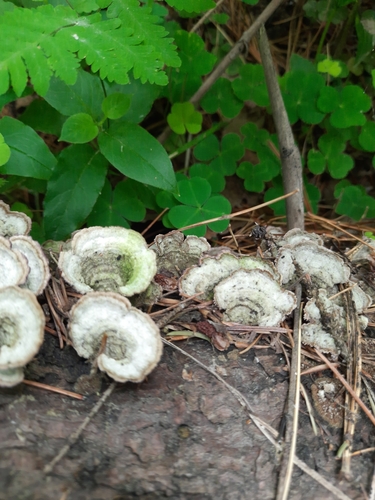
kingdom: Fungi
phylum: Basidiomycota
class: Agaricomycetes
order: Hymenochaetales
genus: Trichaptum
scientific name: Trichaptum fuscoviolaceum
